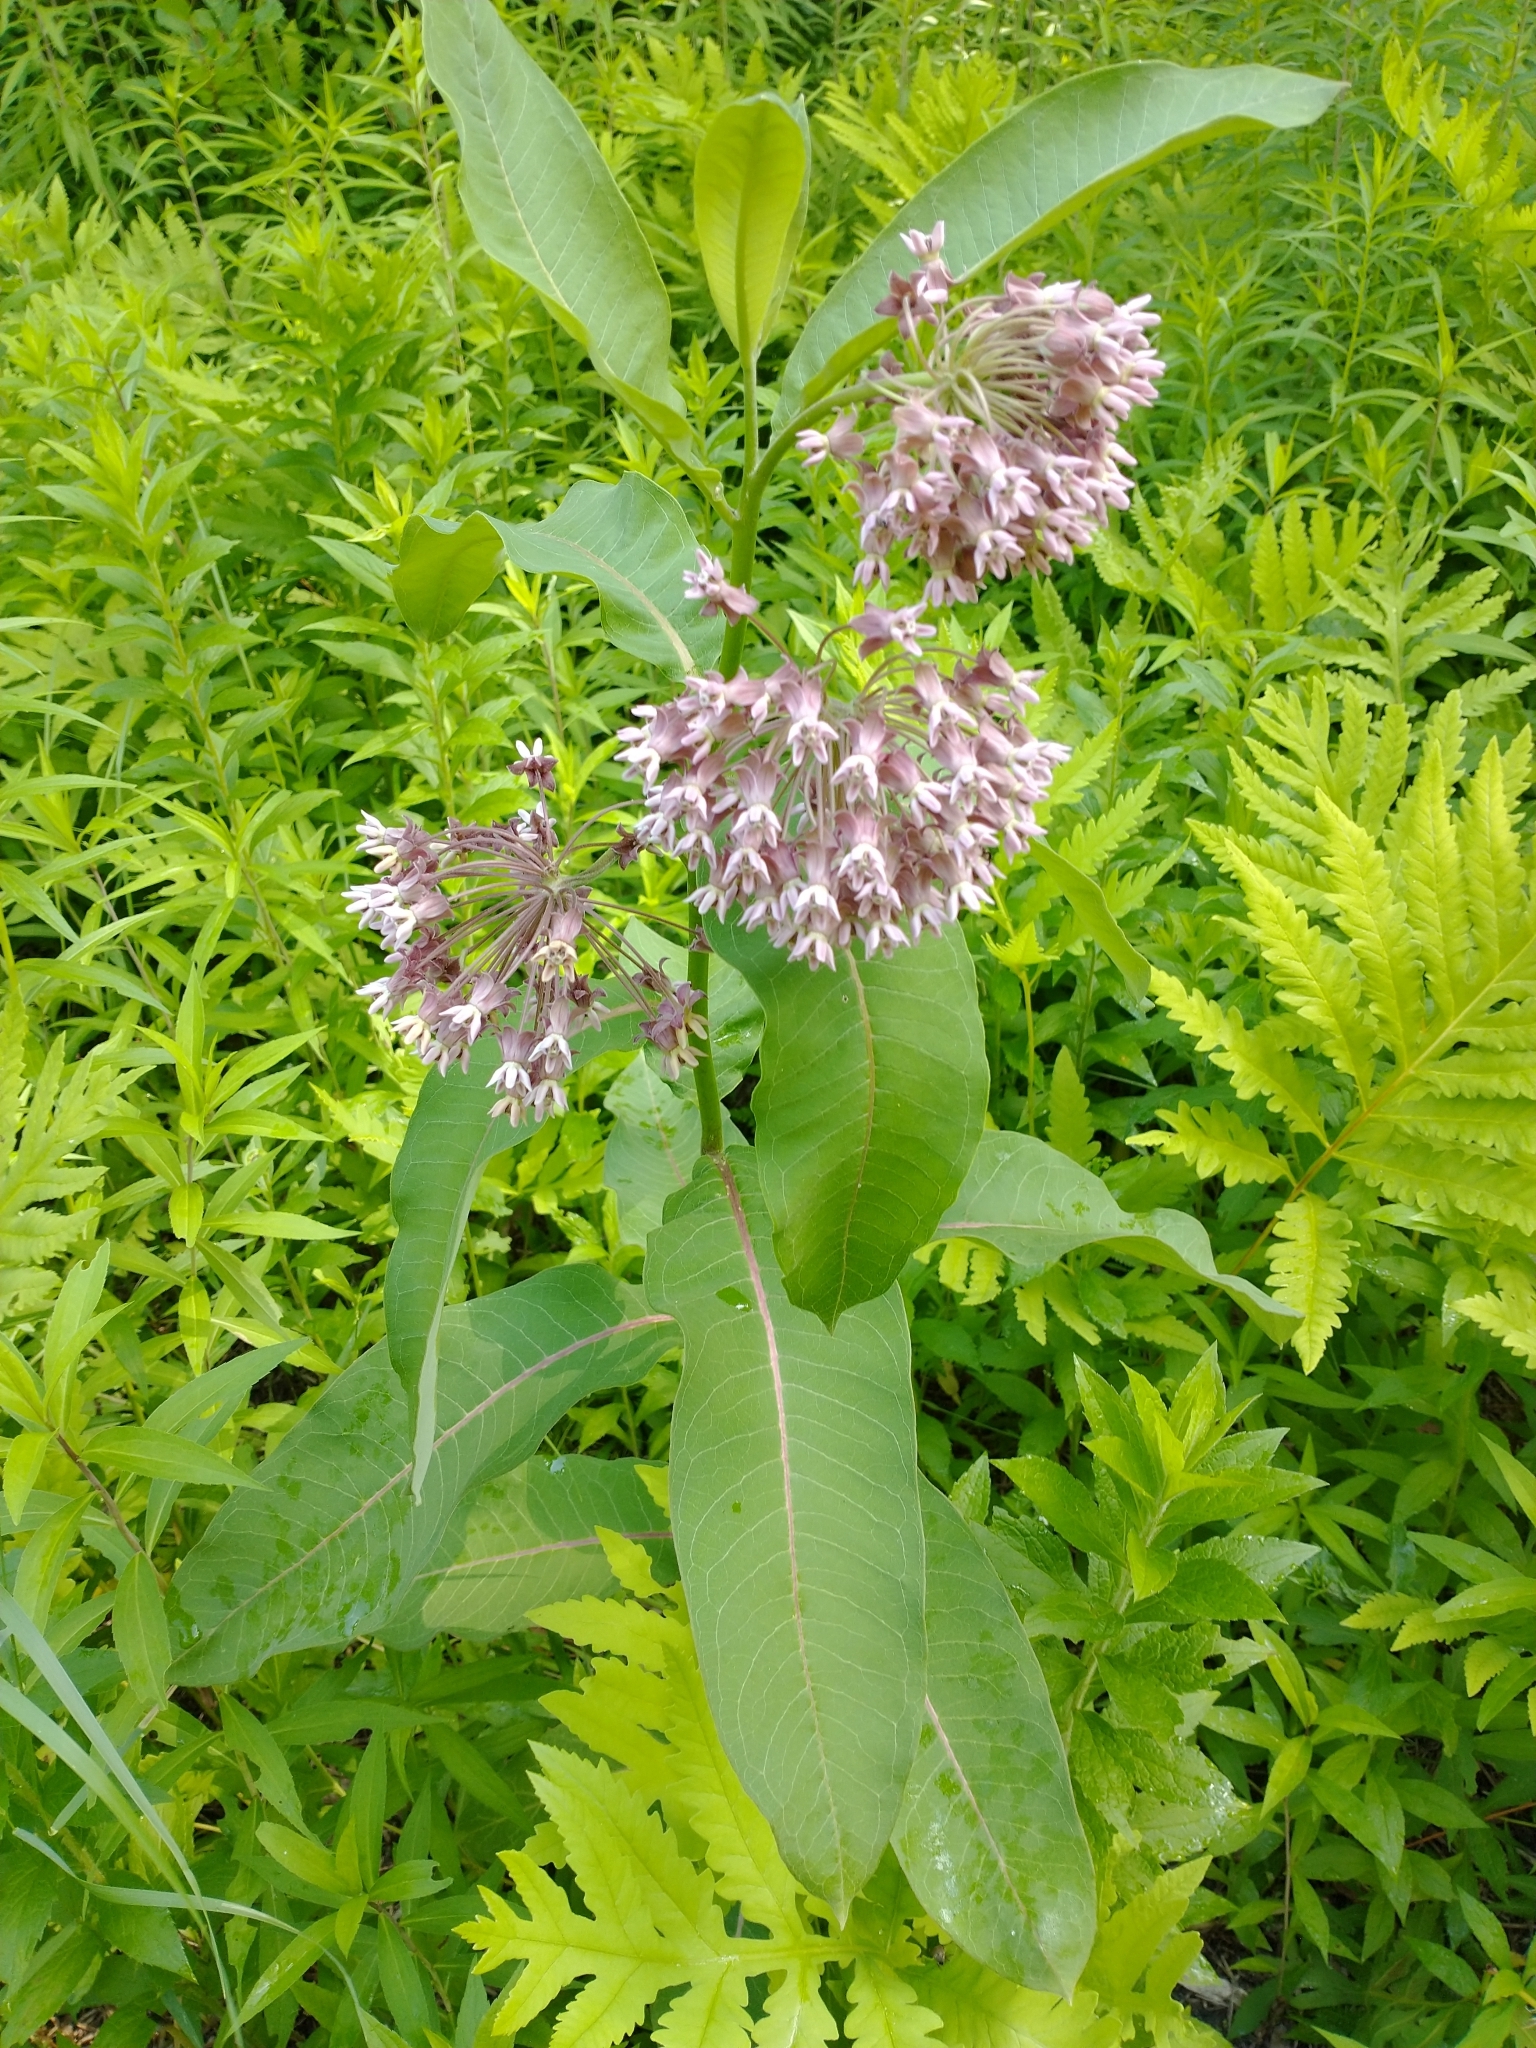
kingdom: Plantae
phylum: Tracheophyta
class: Magnoliopsida
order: Gentianales
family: Apocynaceae
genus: Asclepias
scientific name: Asclepias syriaca
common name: Common milkweed
